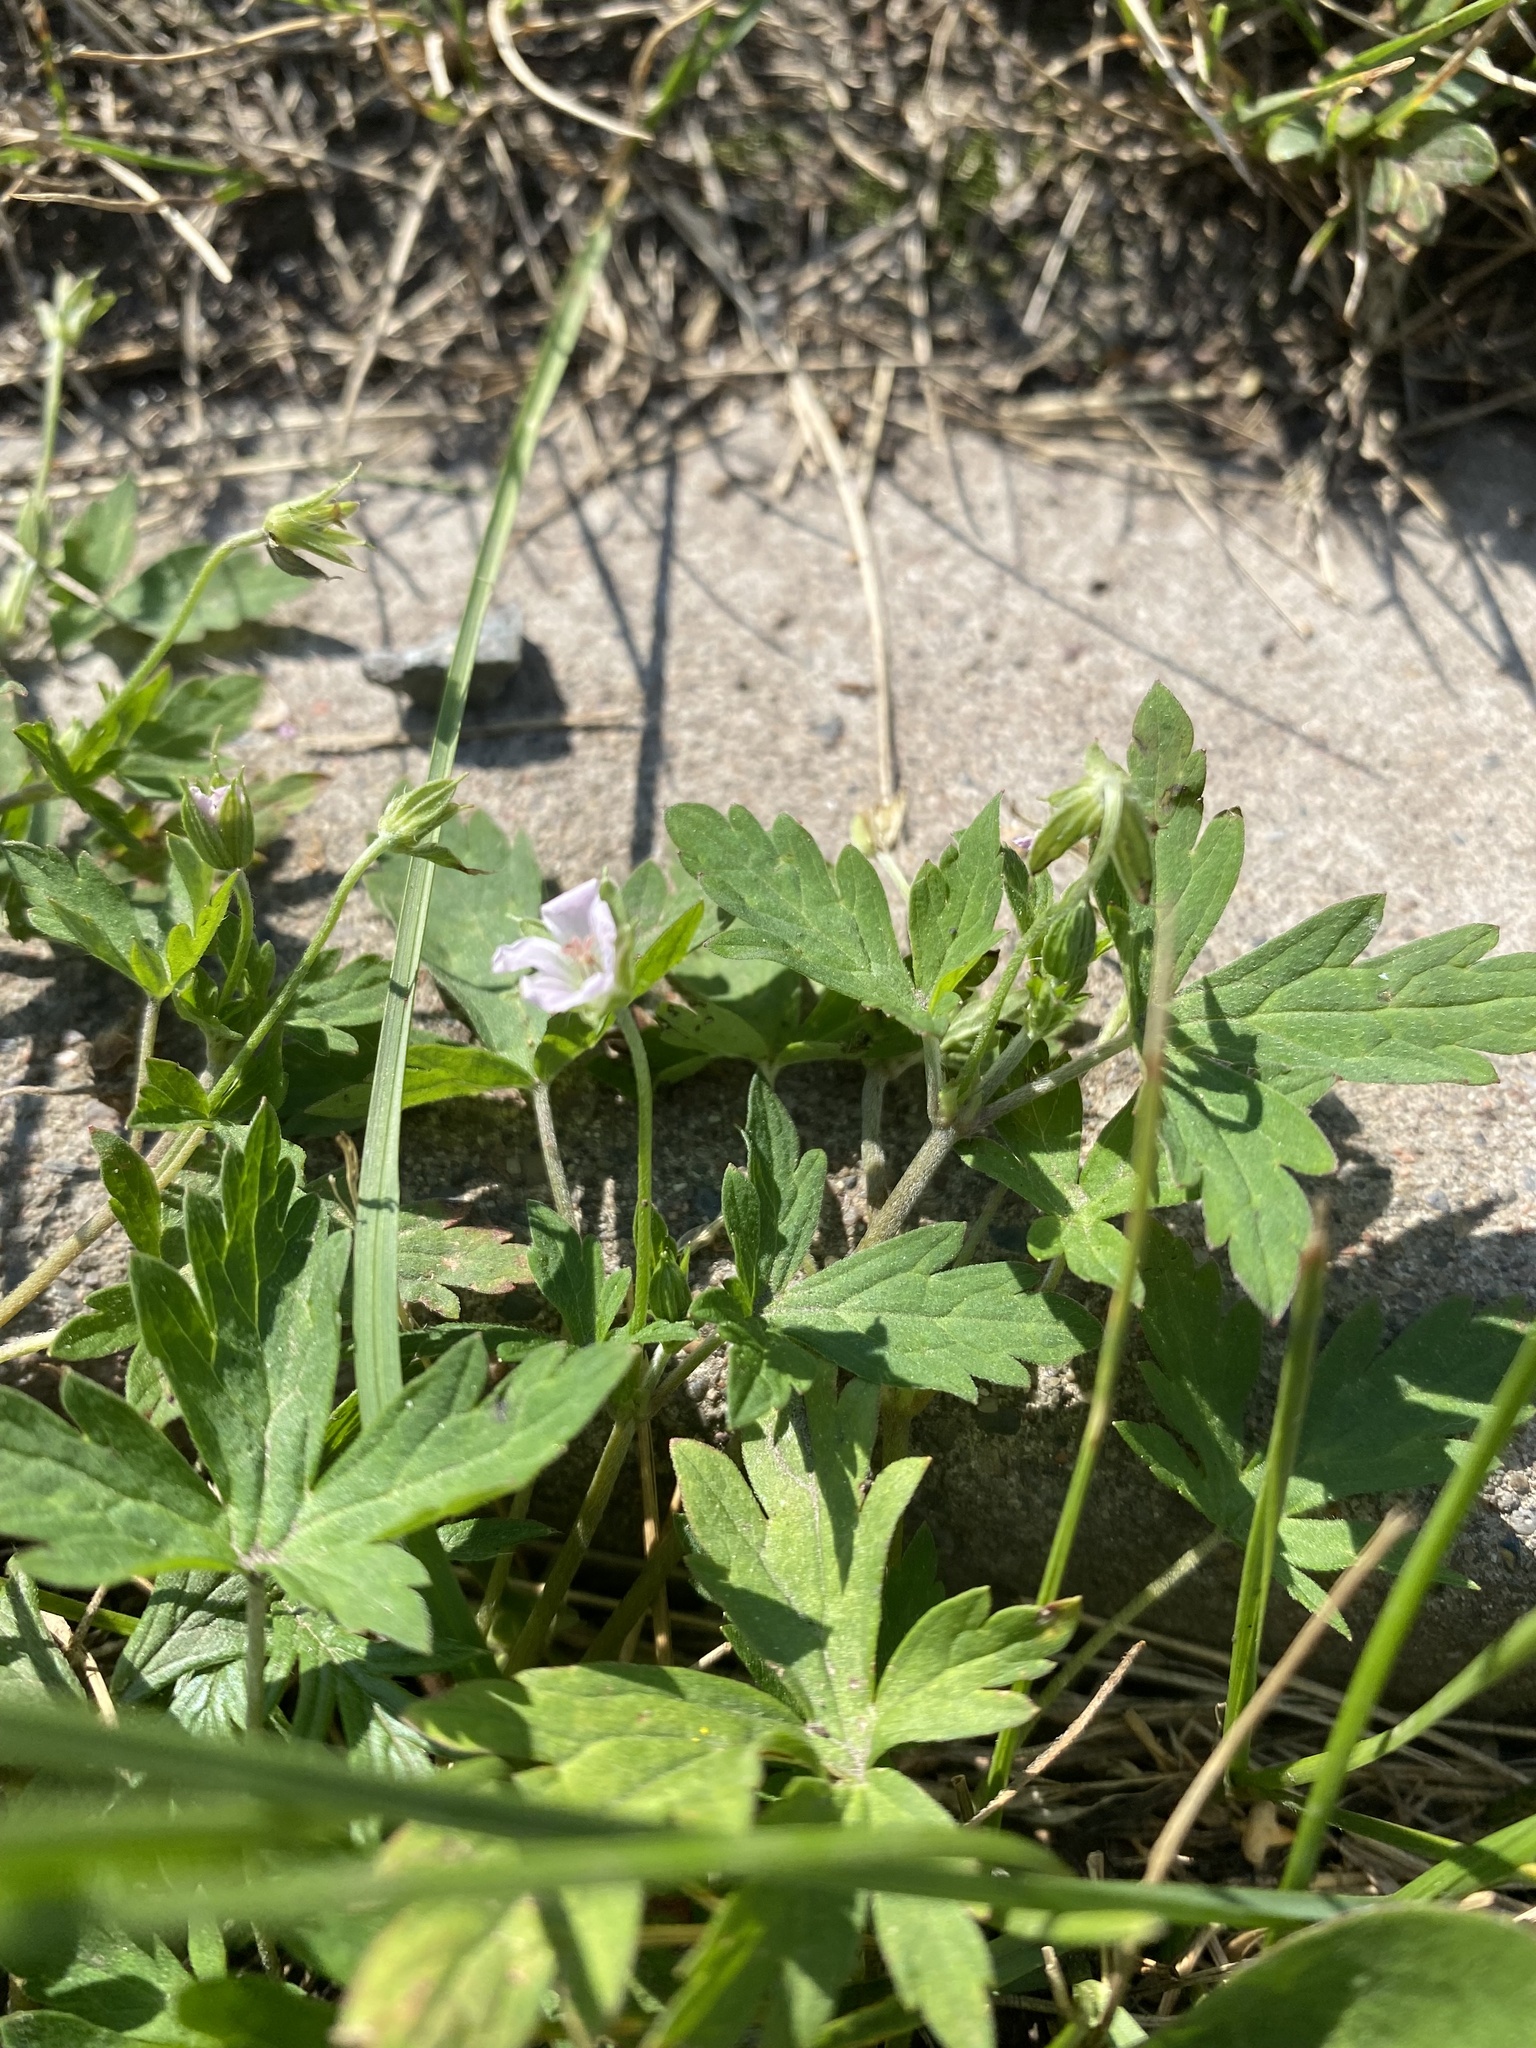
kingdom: Plantae
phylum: Tracheophyta
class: Magnoliopsida
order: Geraniales
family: Geraniaceae
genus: Geranium
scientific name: Geranium sibiricum
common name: Siberian crane's-bill
